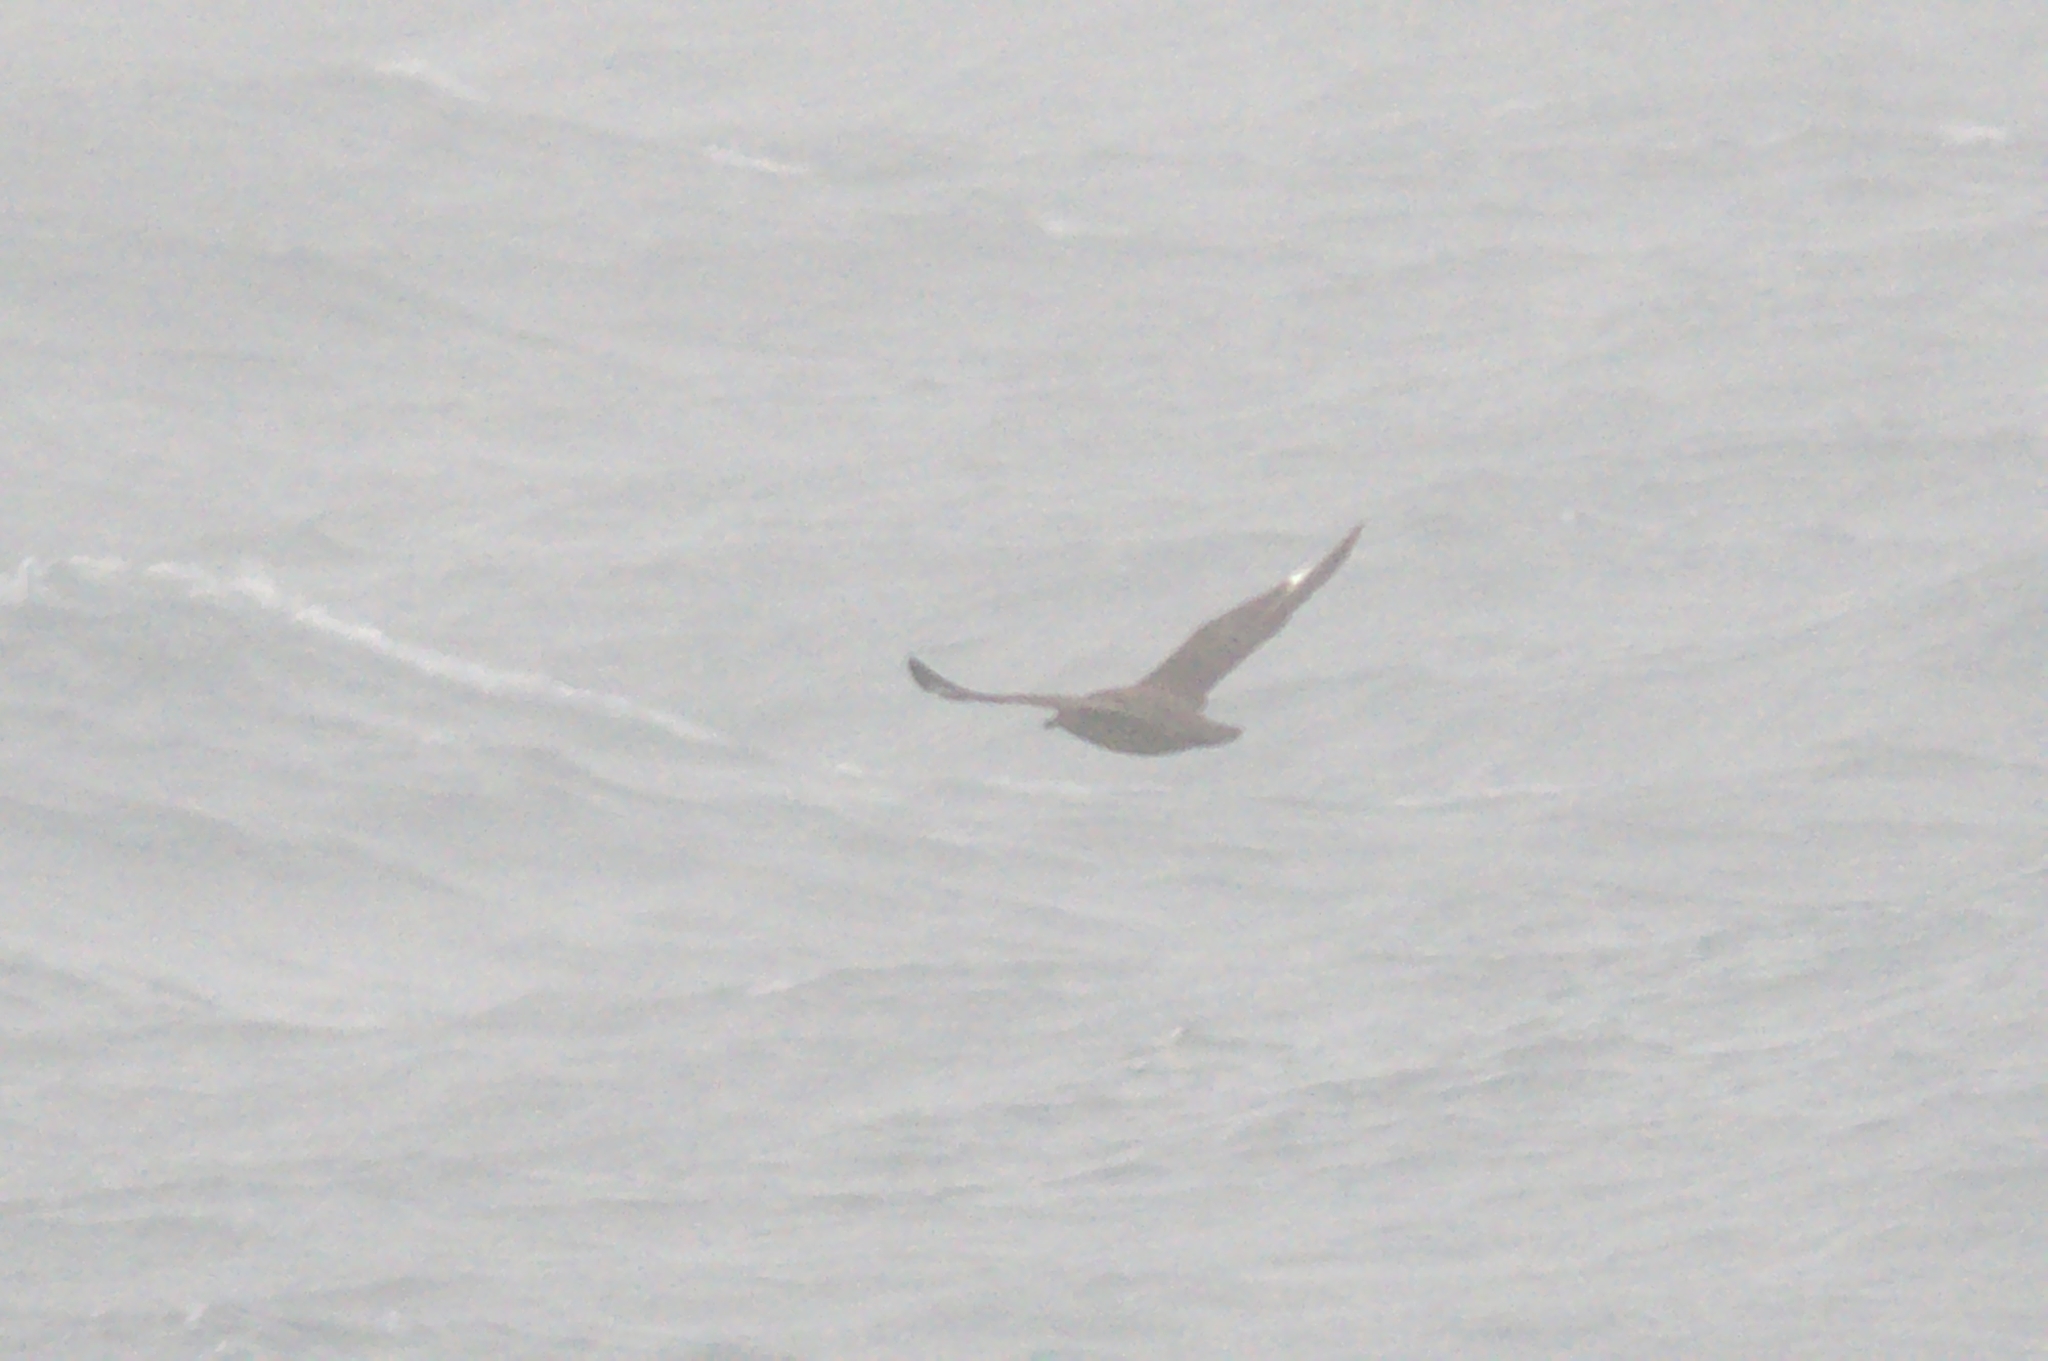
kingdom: Animalia
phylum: Chordata
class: Aves
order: Charadriiformes
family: Stercorariidae
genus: Stercorarius
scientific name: Stercorarius skua
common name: Great skua
